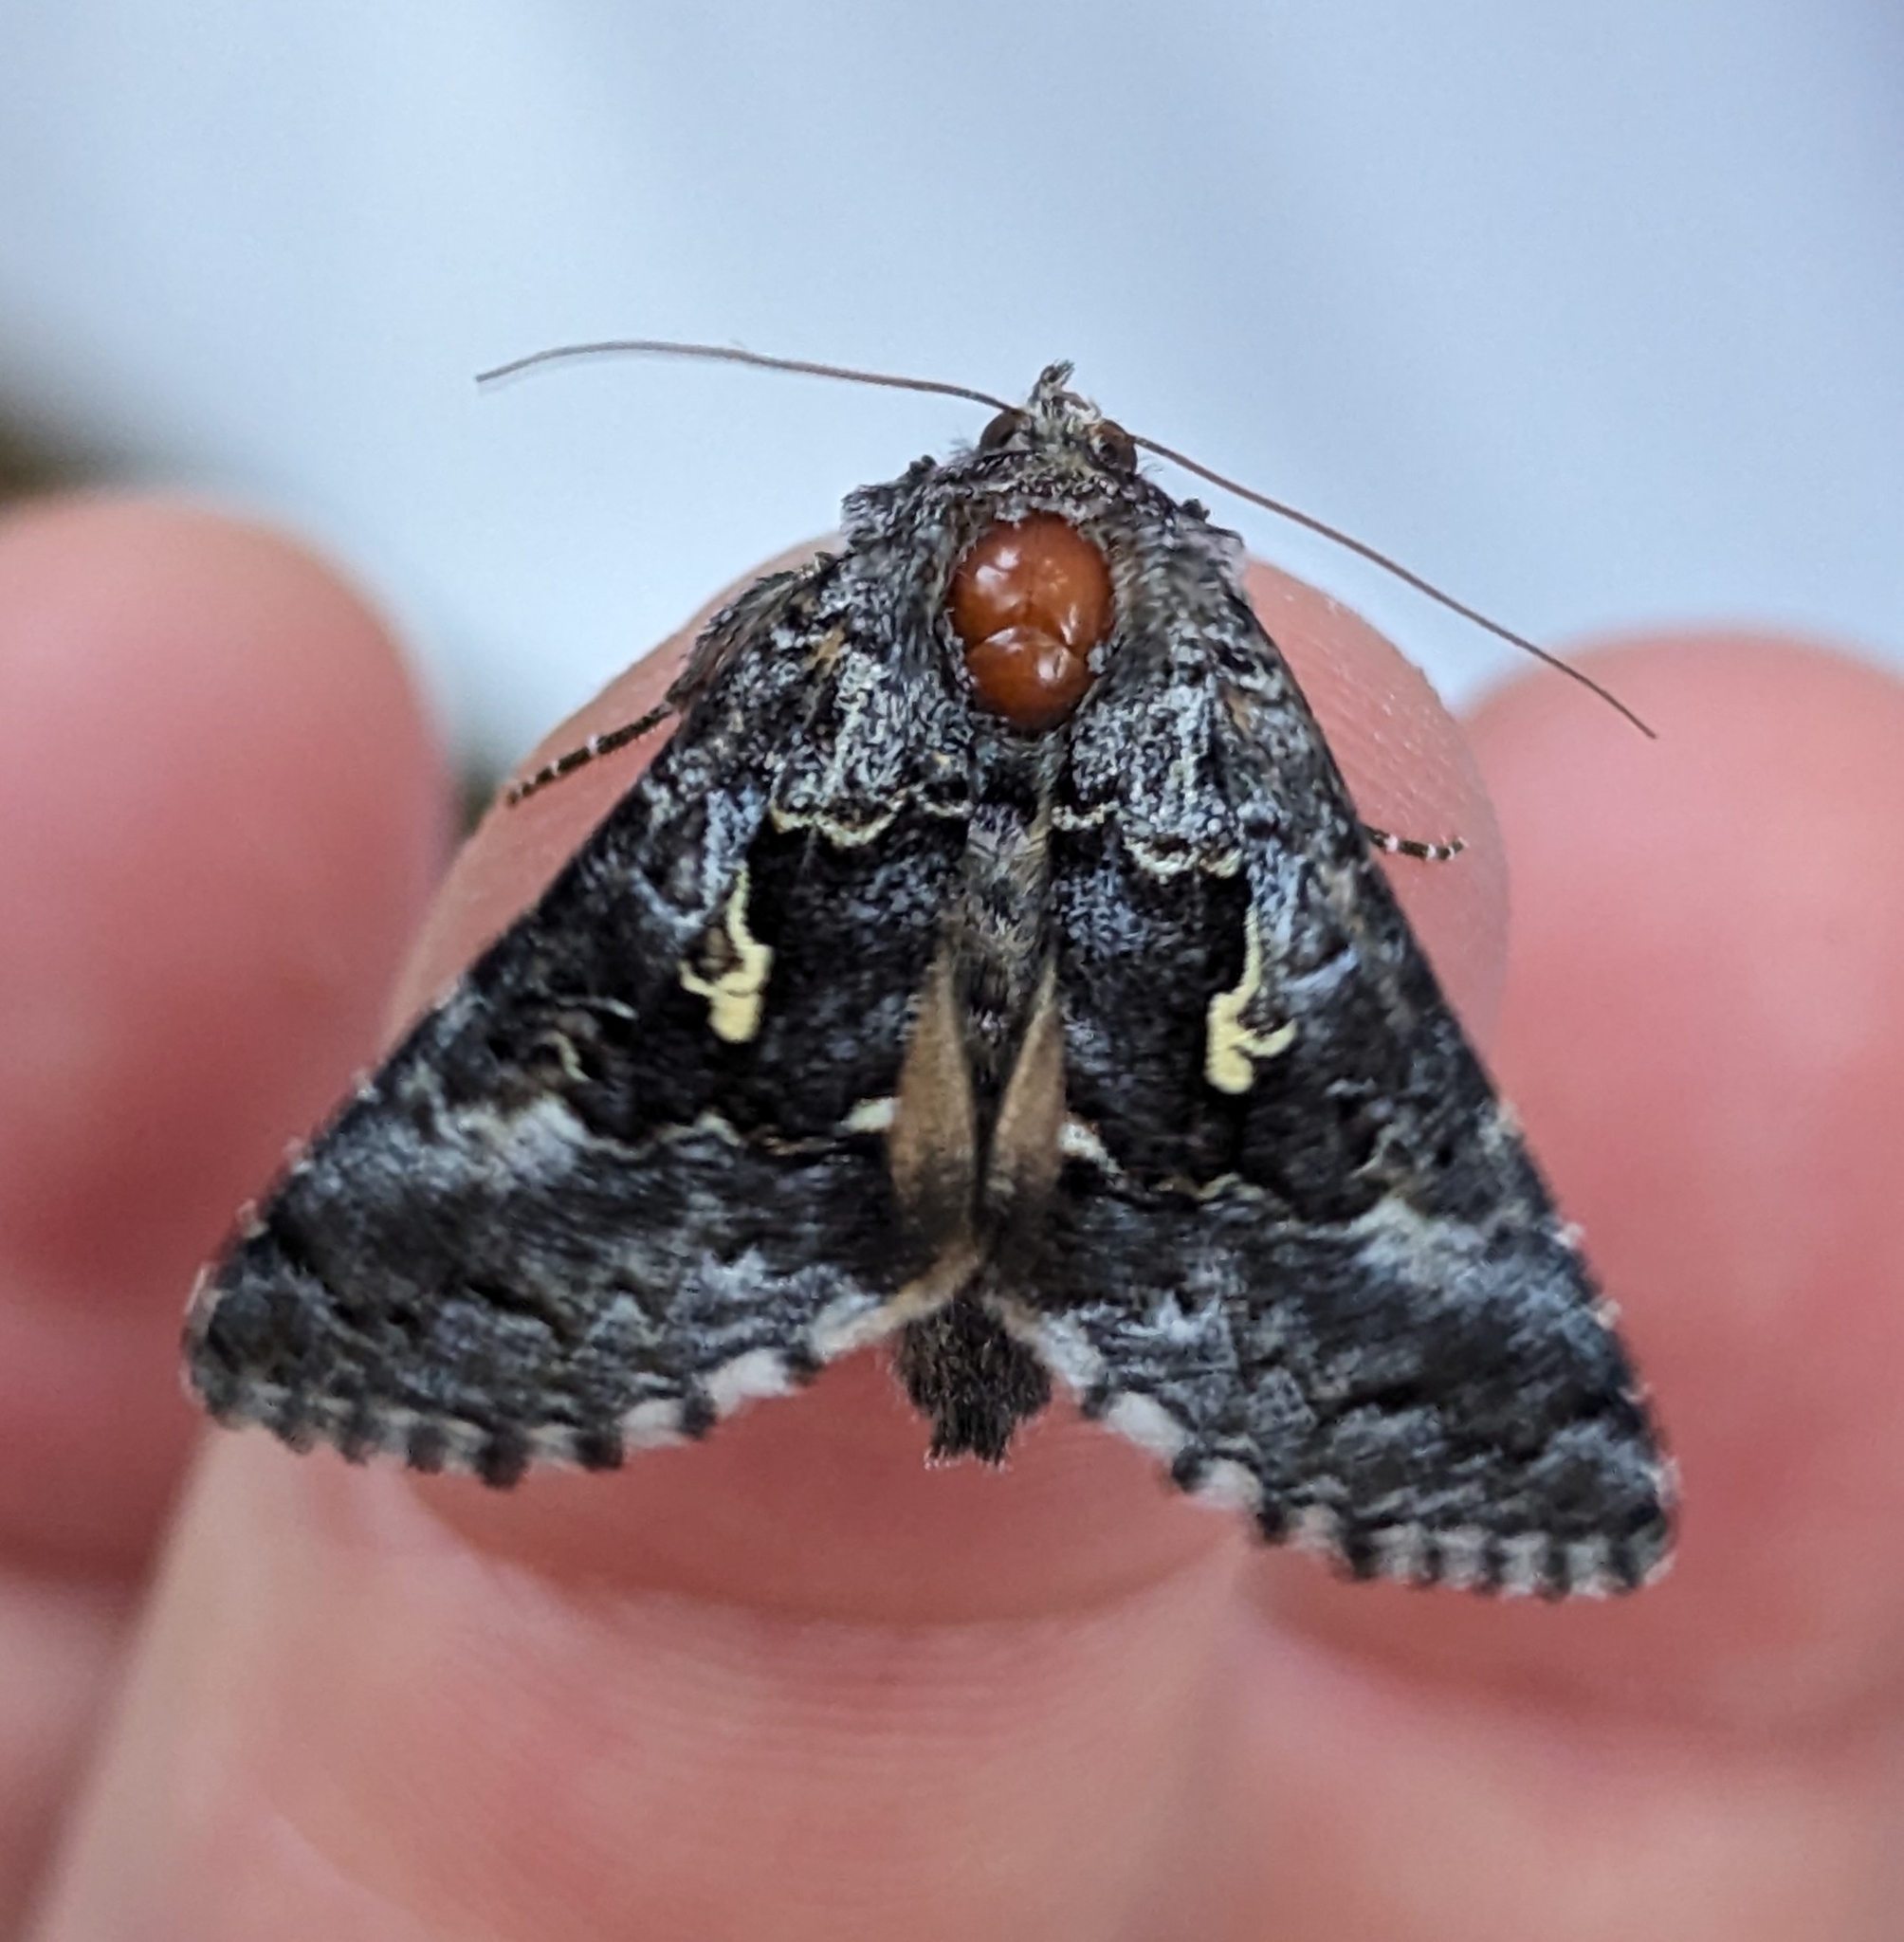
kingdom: Animalia
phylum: Arthropoda
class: Insecta
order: Lepidoptera
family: Noctuidae
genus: Syngrapha
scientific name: Syngrapha celsa
